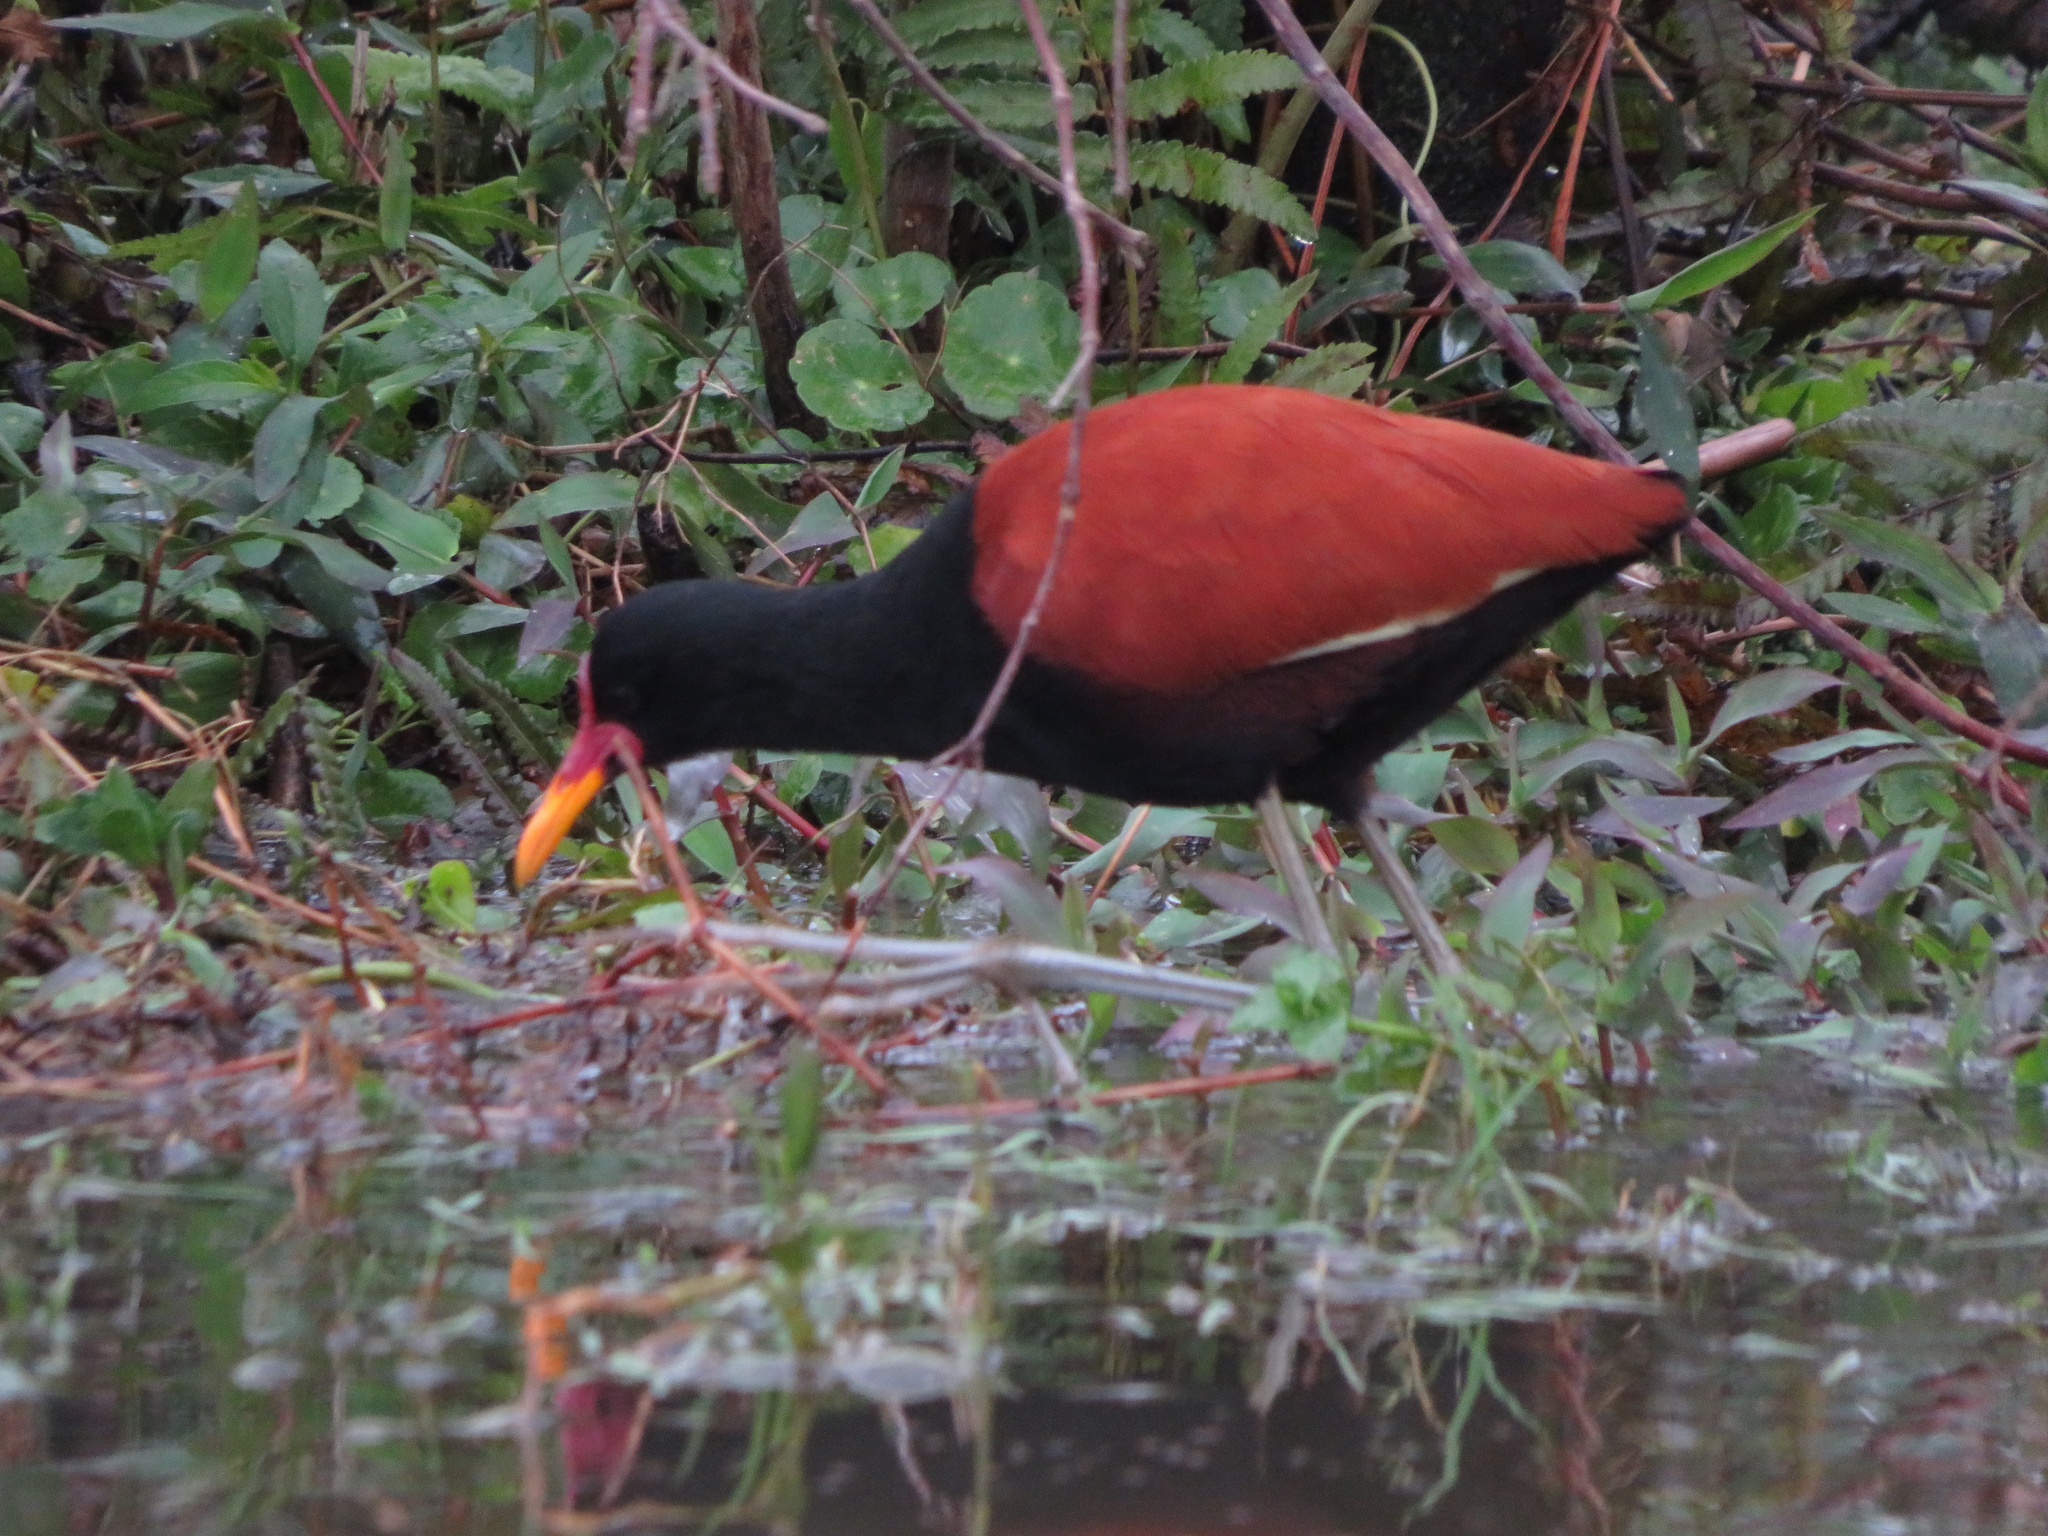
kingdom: Animalia
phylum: Chordata
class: Aves
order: Charadriiformes
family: Jacanidae
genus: Jacana
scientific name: Jacana jacana
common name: Wattled jacana
